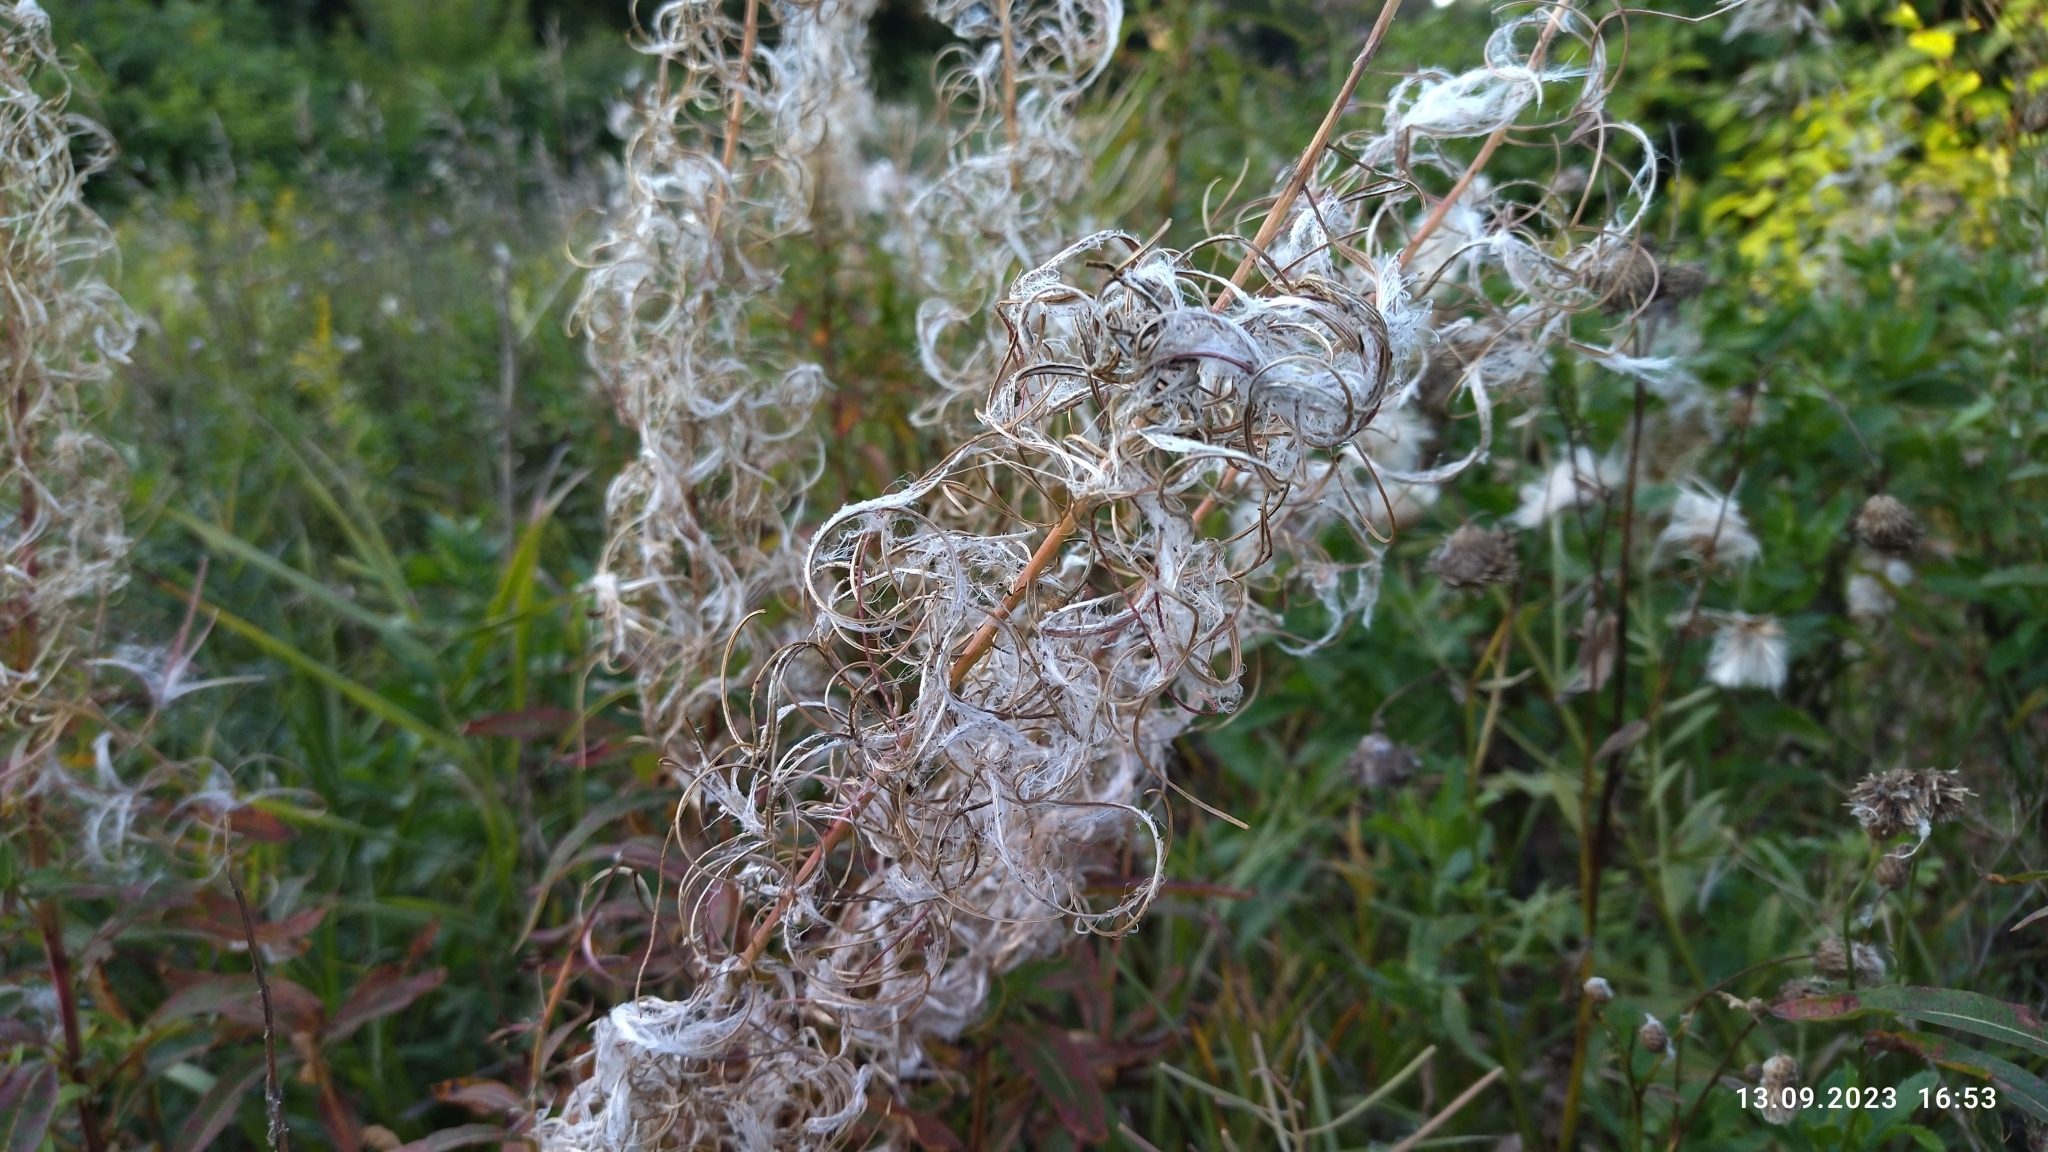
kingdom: Plantae
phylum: Tracheophyta
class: Magnoliopsida
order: Myrtales
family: Onagraceae
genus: Chamaenerion
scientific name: Chamaenerion angustifolium
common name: Fireweed
